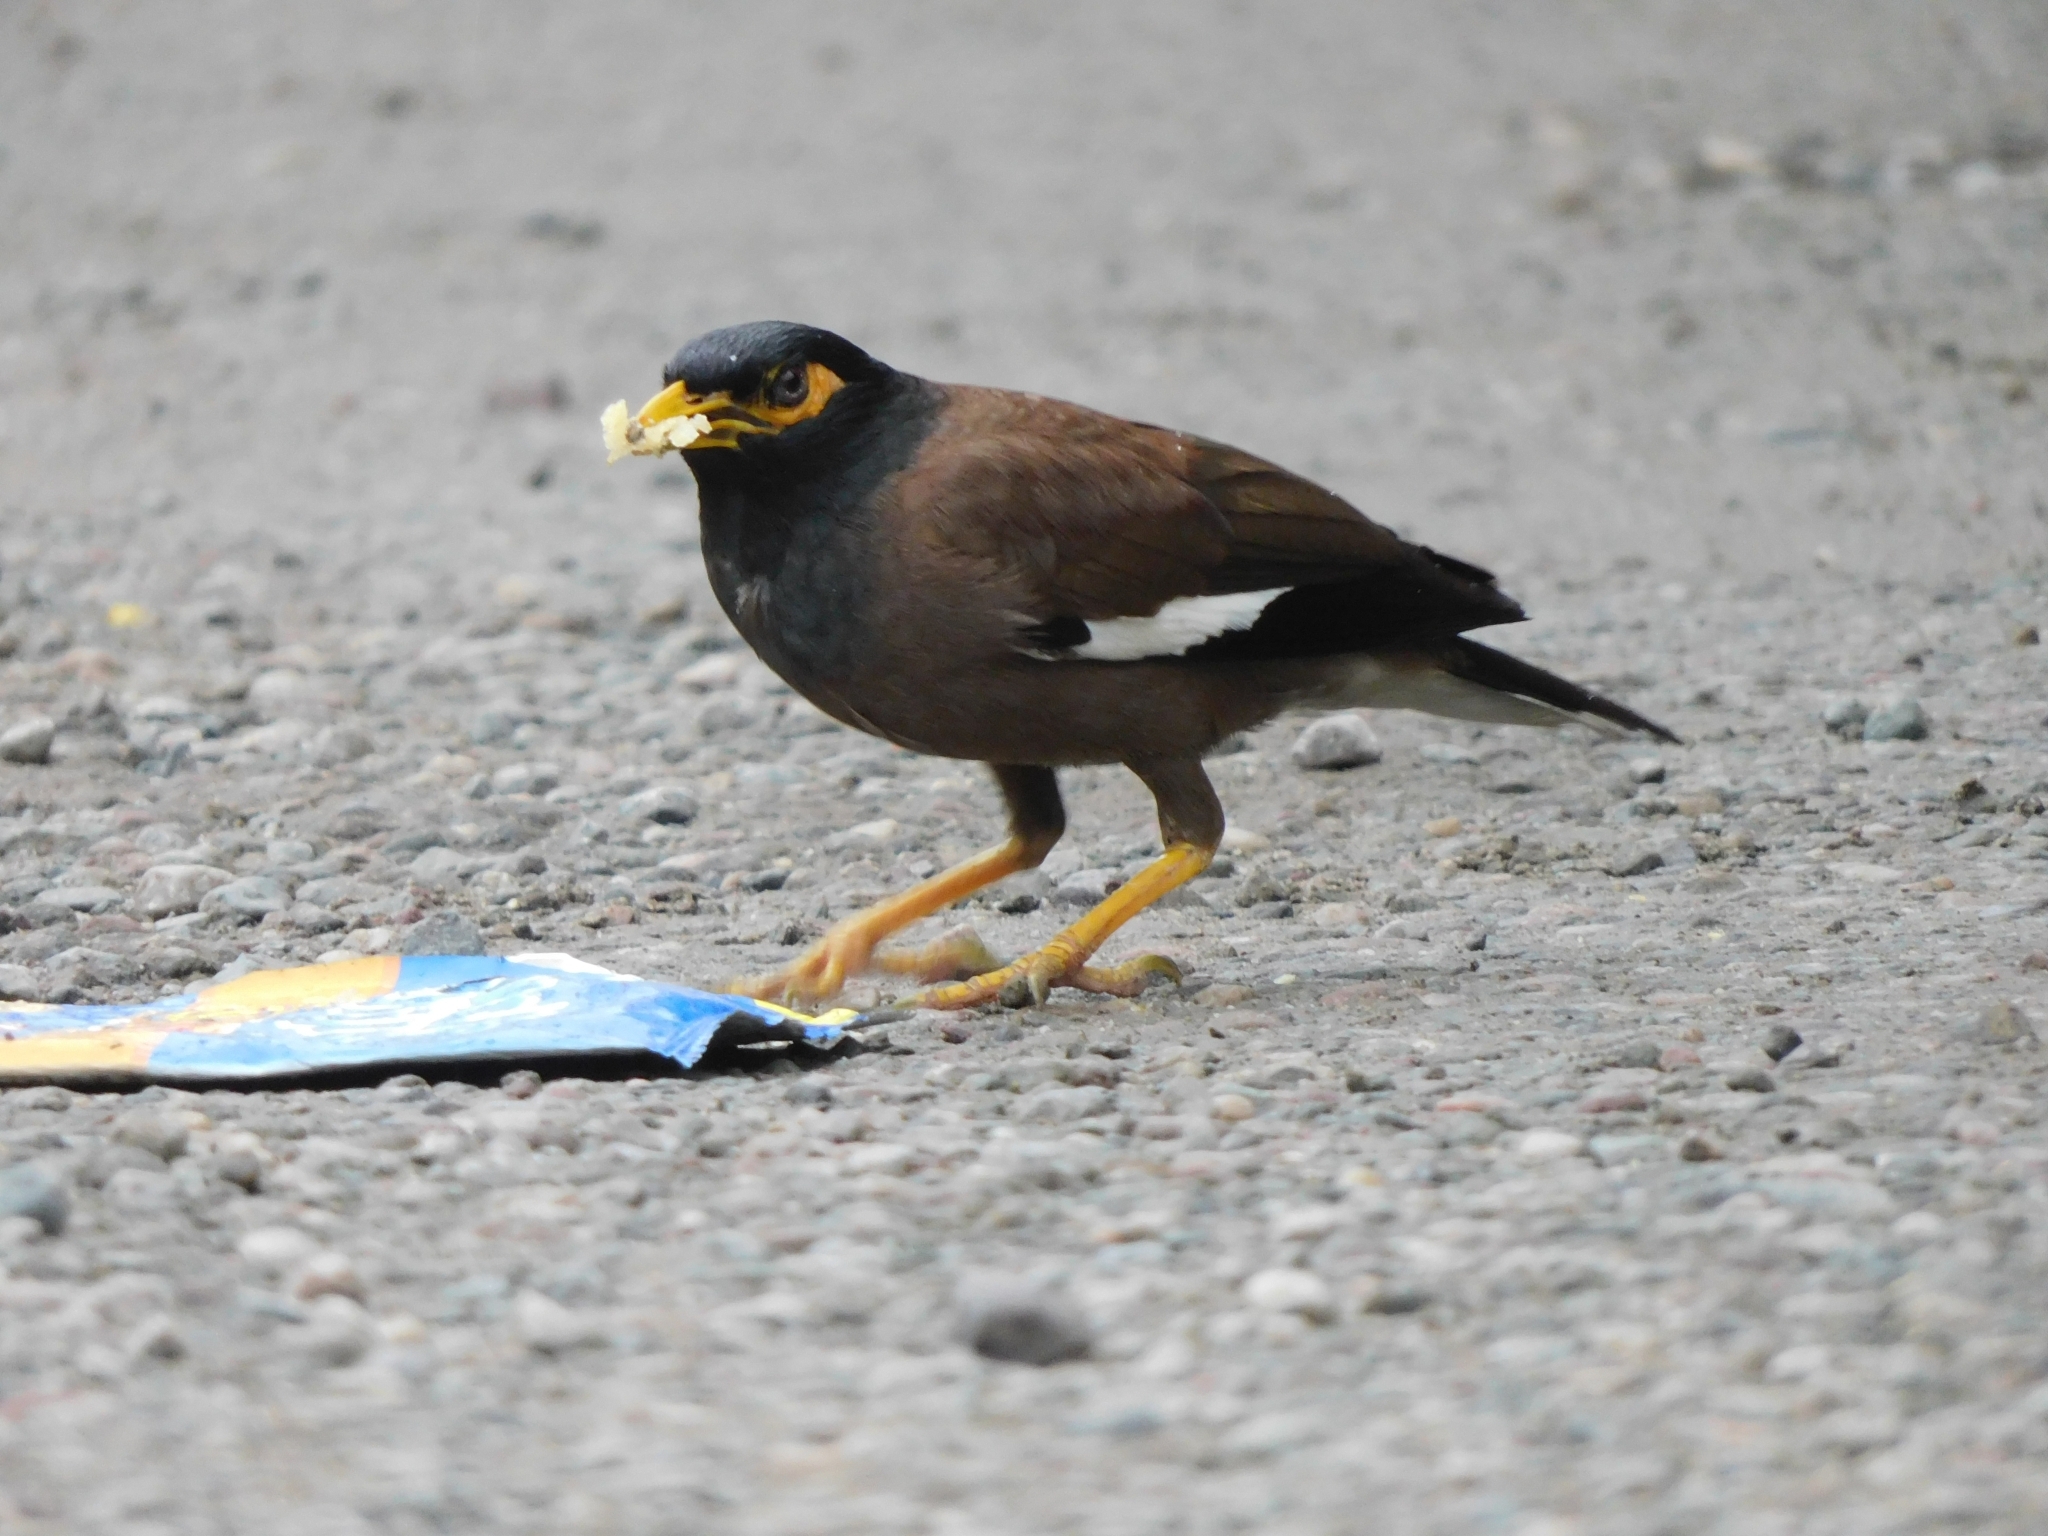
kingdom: Animalia
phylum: Chordata
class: Aves
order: Passeriformes
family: Sturnidae
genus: Acridotheres
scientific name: Acridotheres tristis
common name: Common myna
